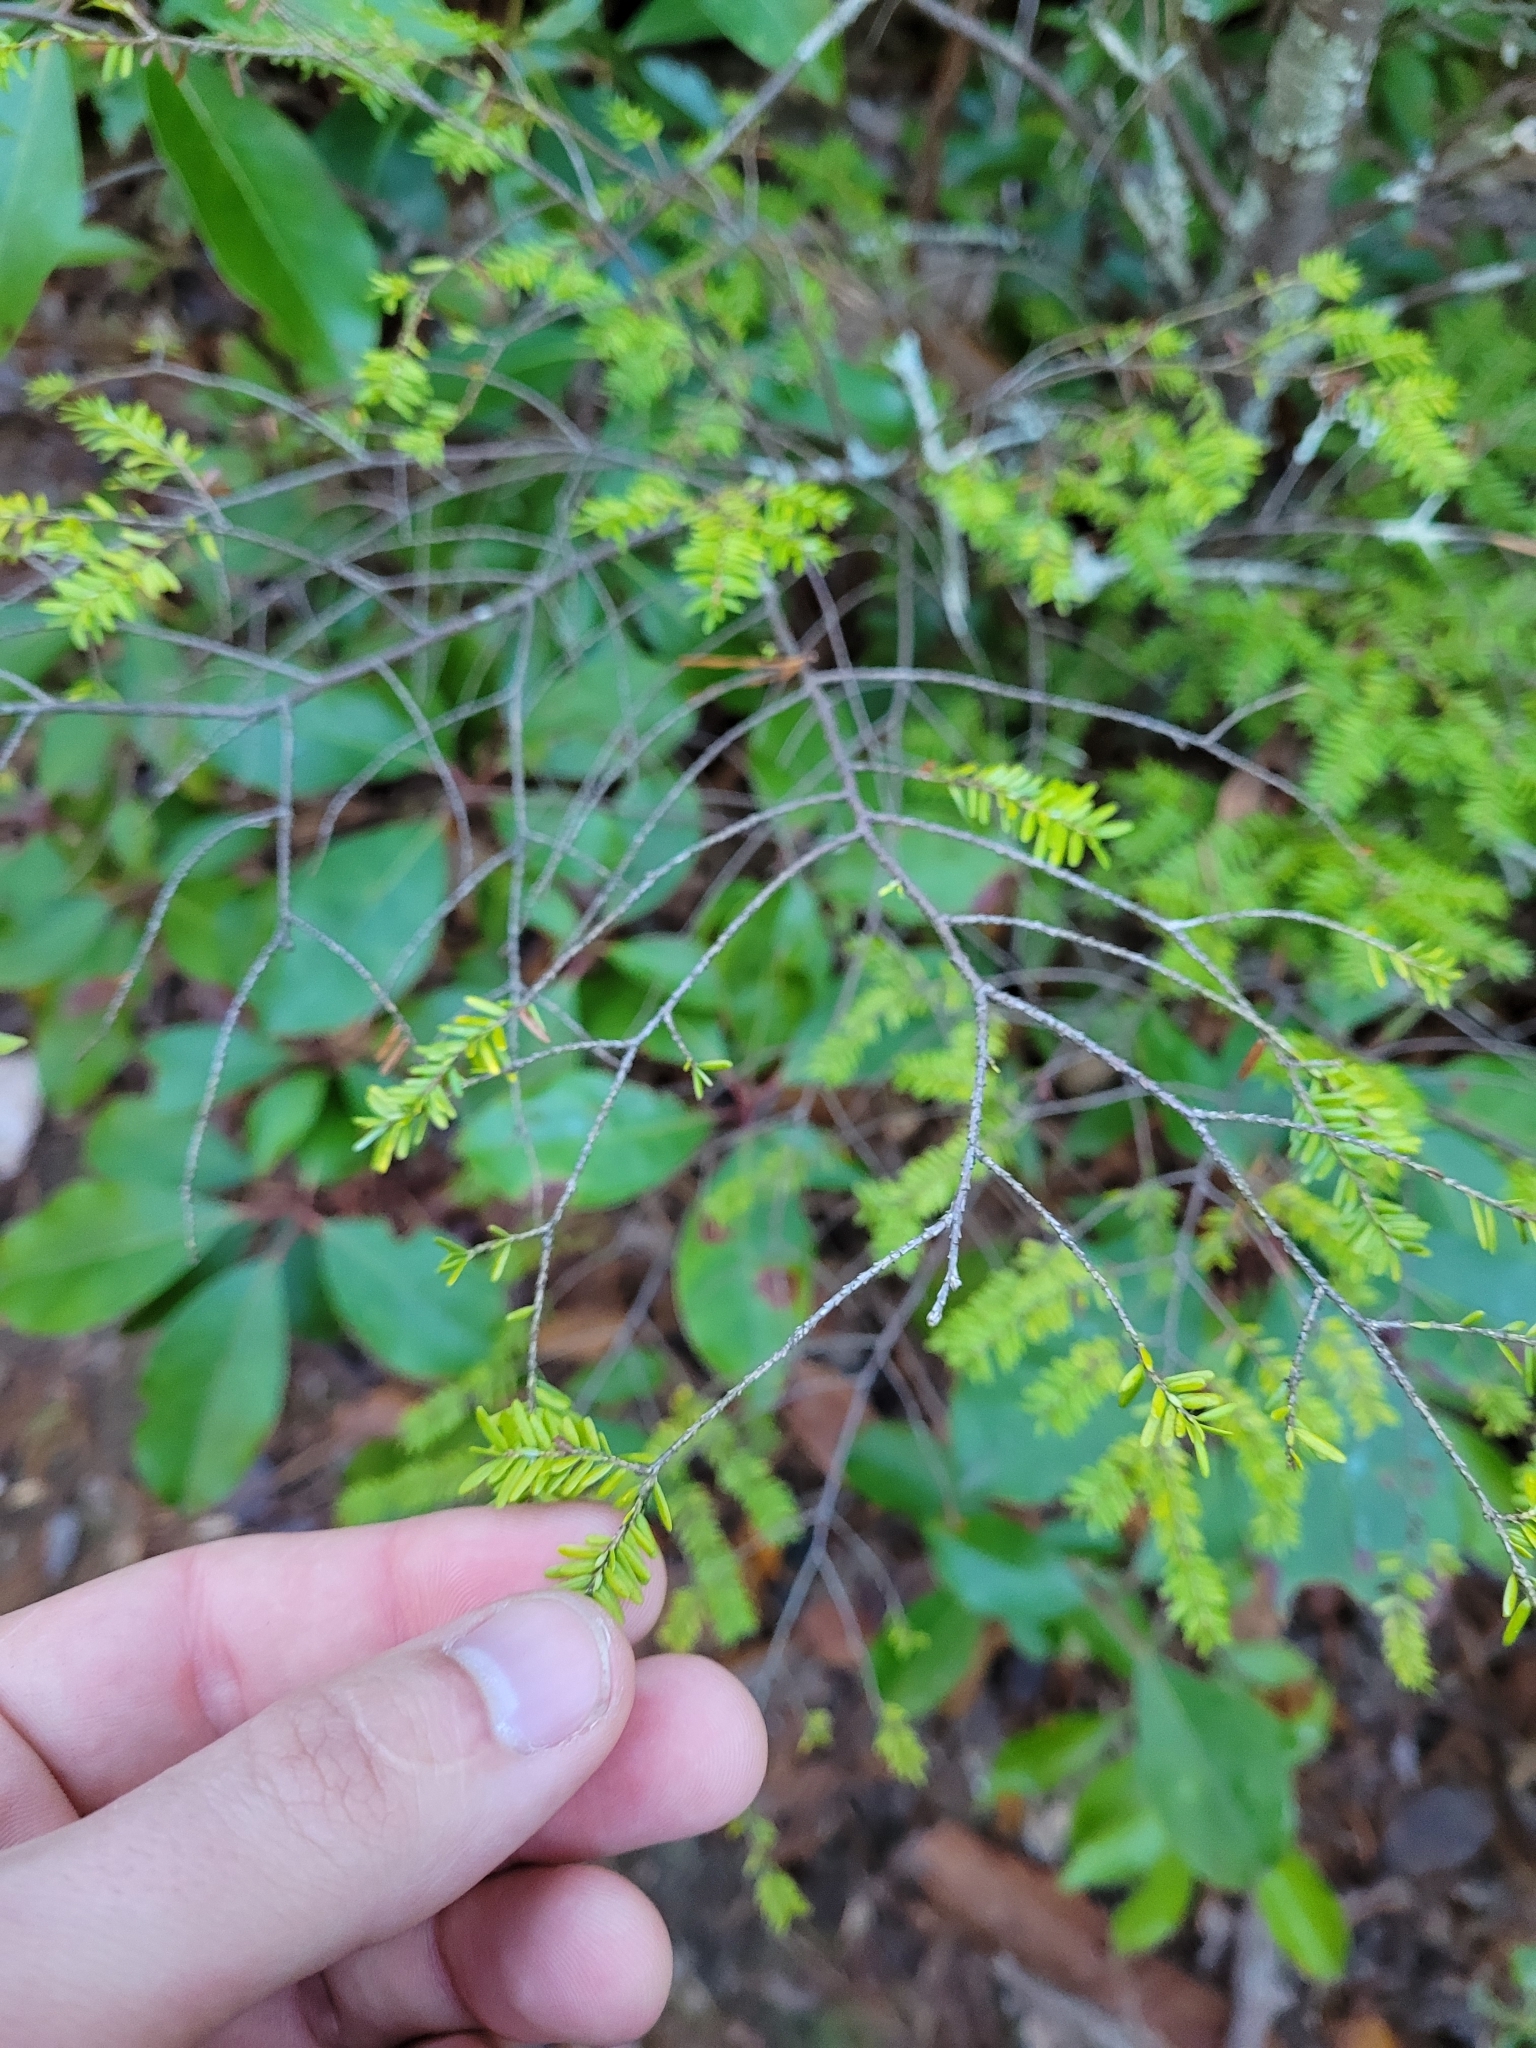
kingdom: Plantae
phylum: Tracheophyta
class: Pinopsida
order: Pinales
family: Pinaceae
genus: Tsuga
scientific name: Tsuga canadensis
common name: Eastern hemlock
